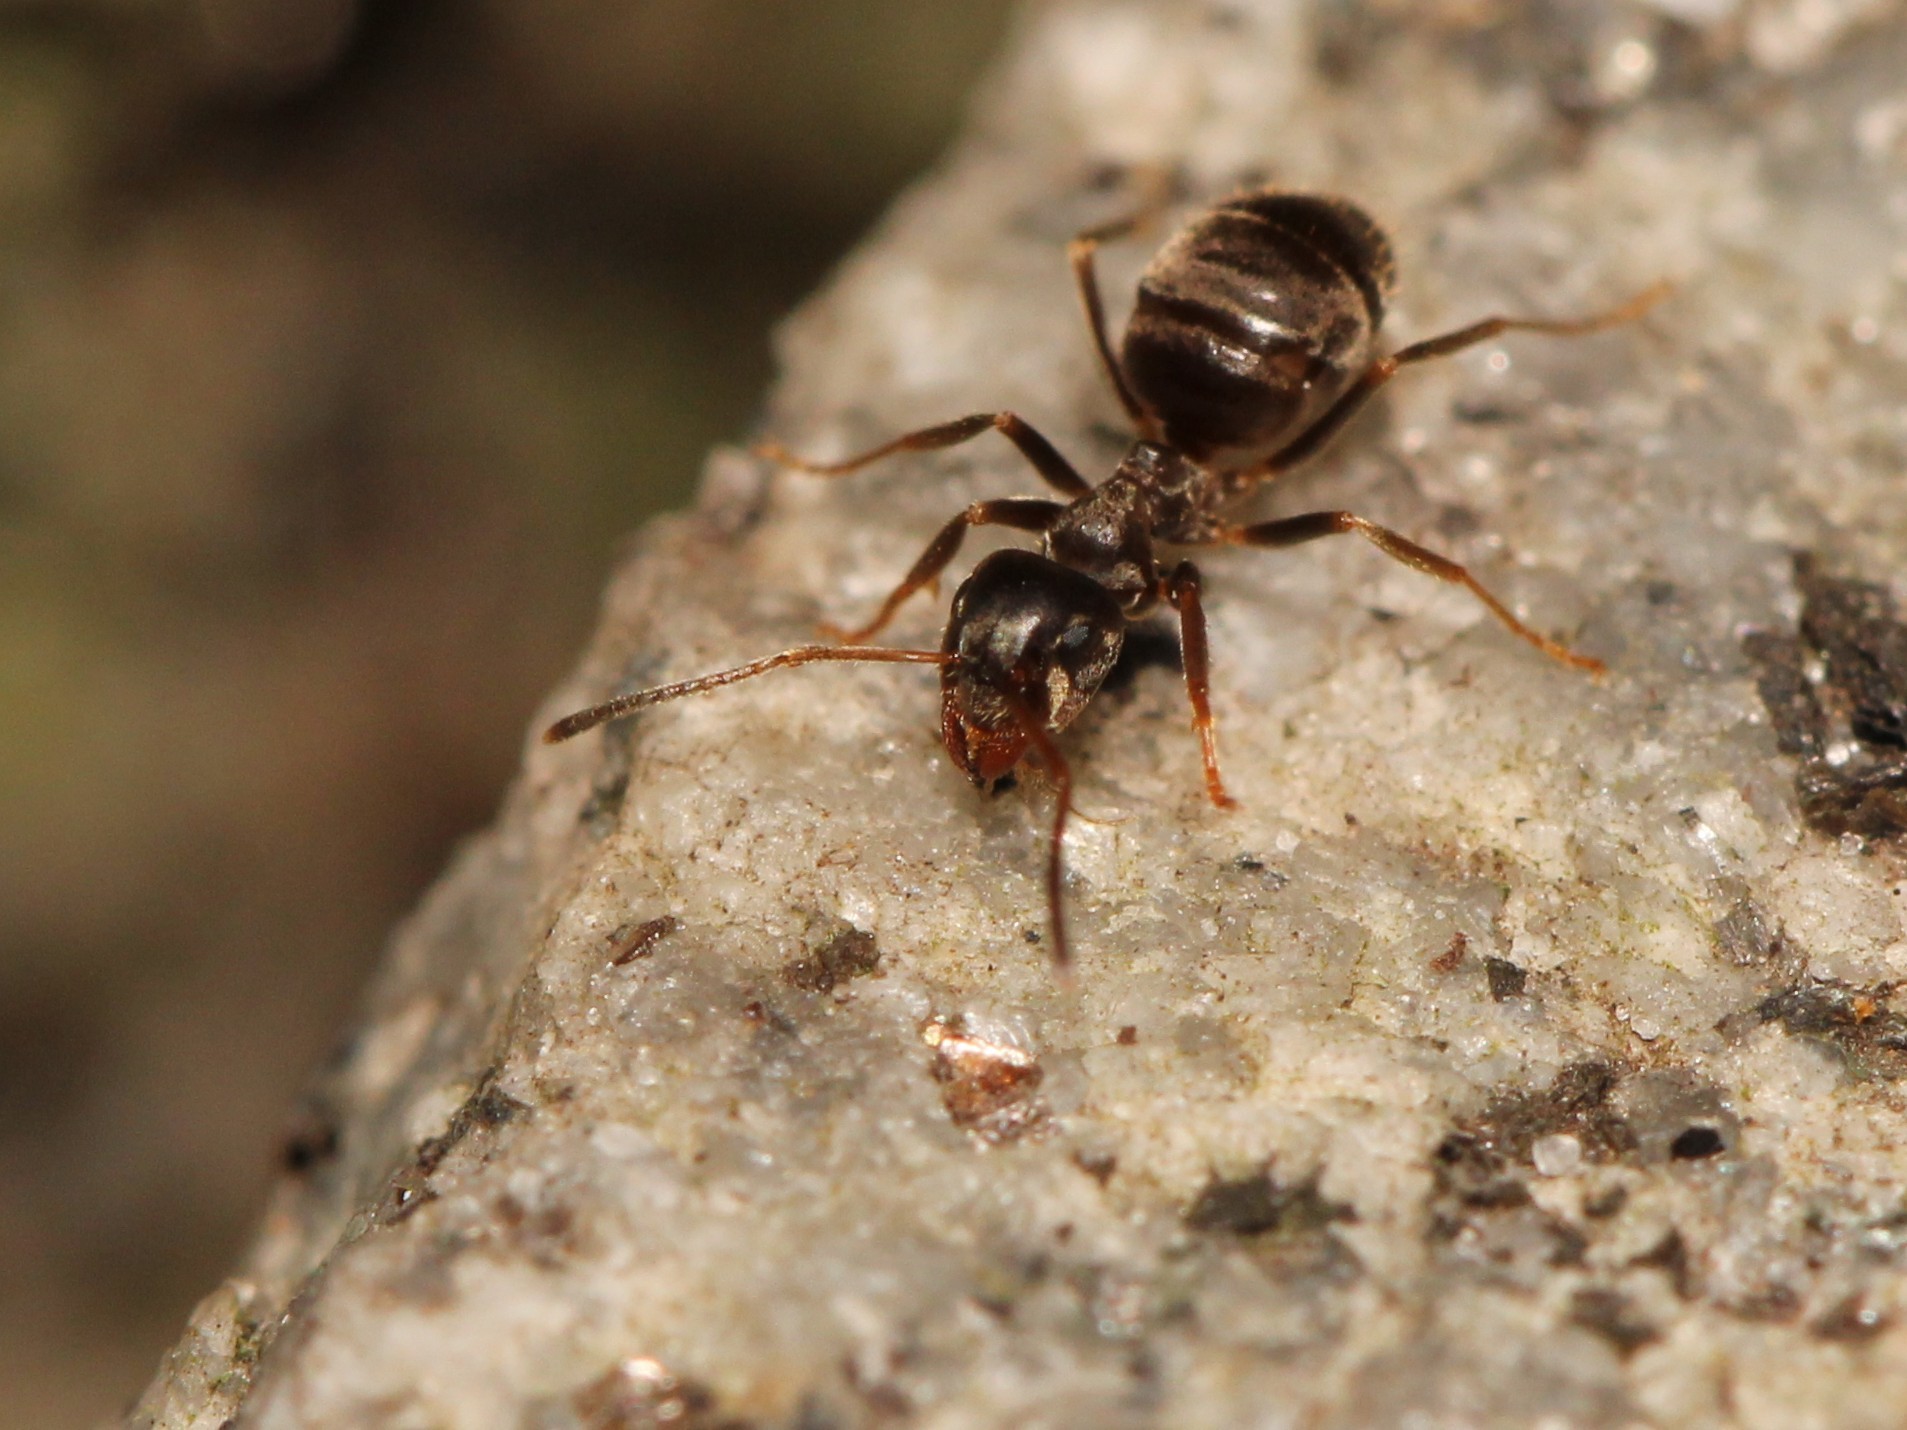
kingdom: Animalia
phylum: Arthropoda
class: Insecta
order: Hymenoptera
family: Formicidae
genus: Lasius
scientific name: Lasius niger
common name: Small black ant
